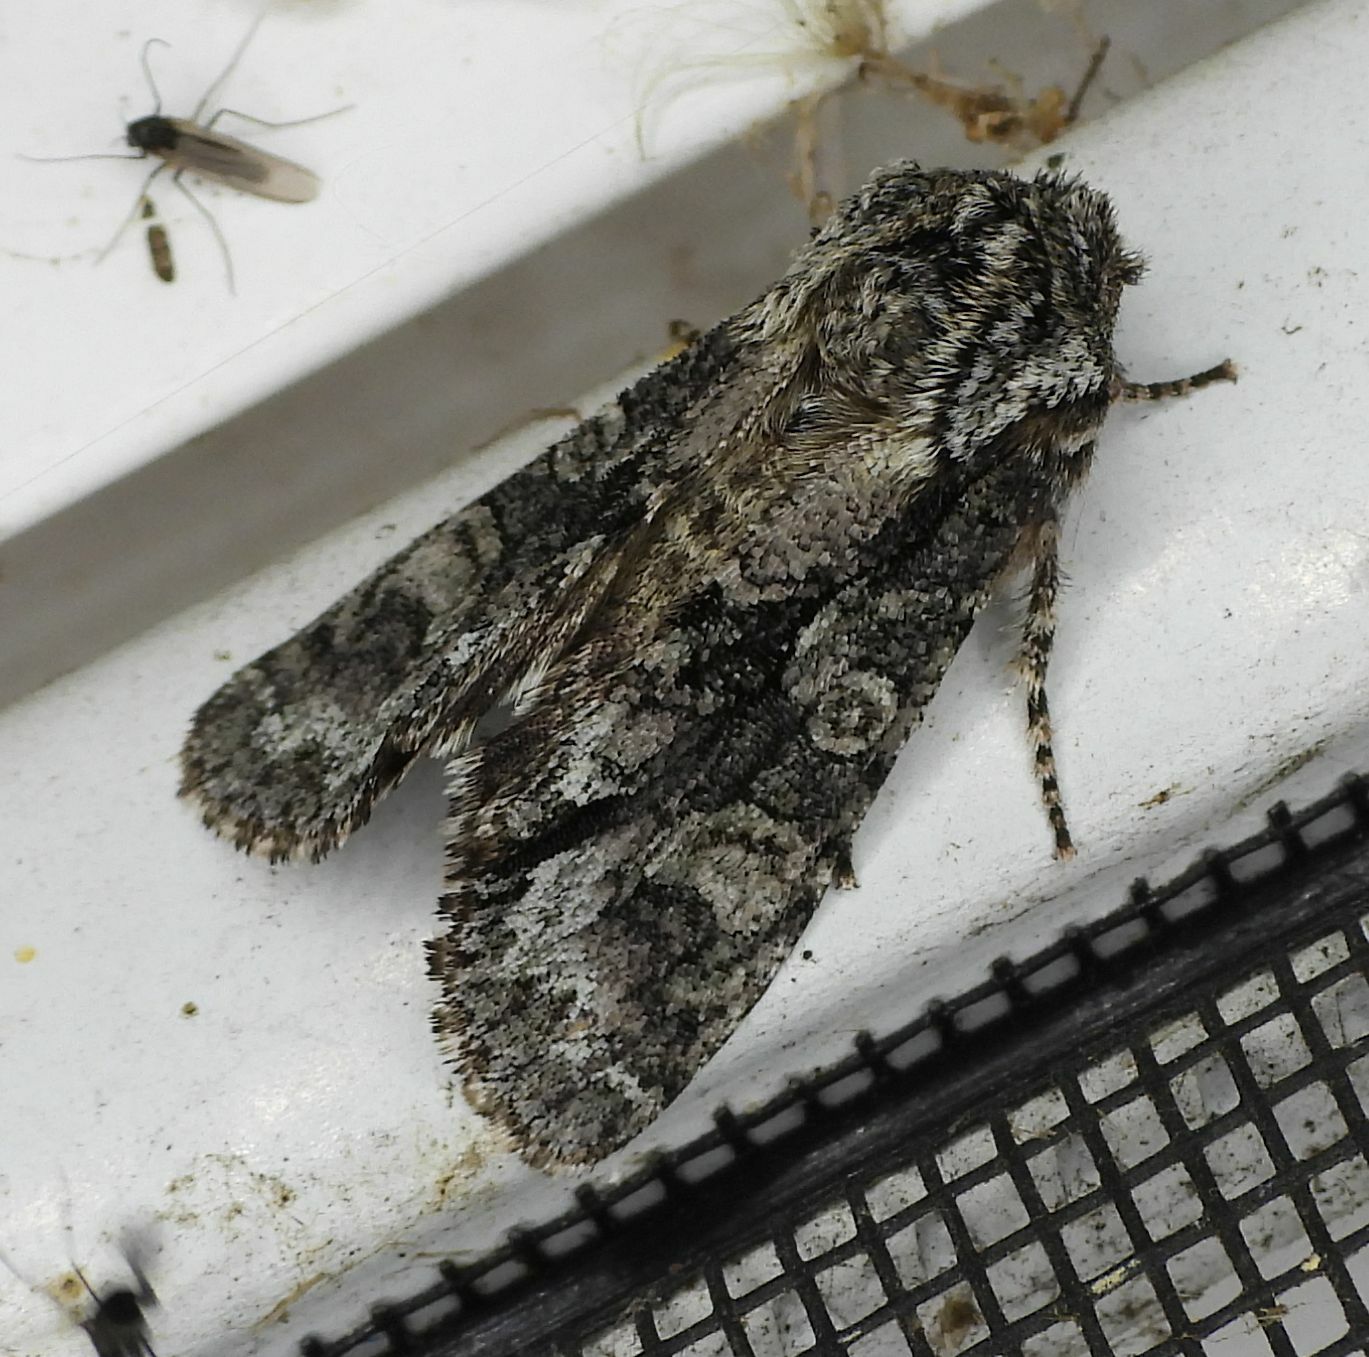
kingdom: Animalia
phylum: Arthropoda
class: Insecta
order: Lepidoptera
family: Noctuidae
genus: Psaphida
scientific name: Psaphida resumens
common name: Figure-eight sallow
